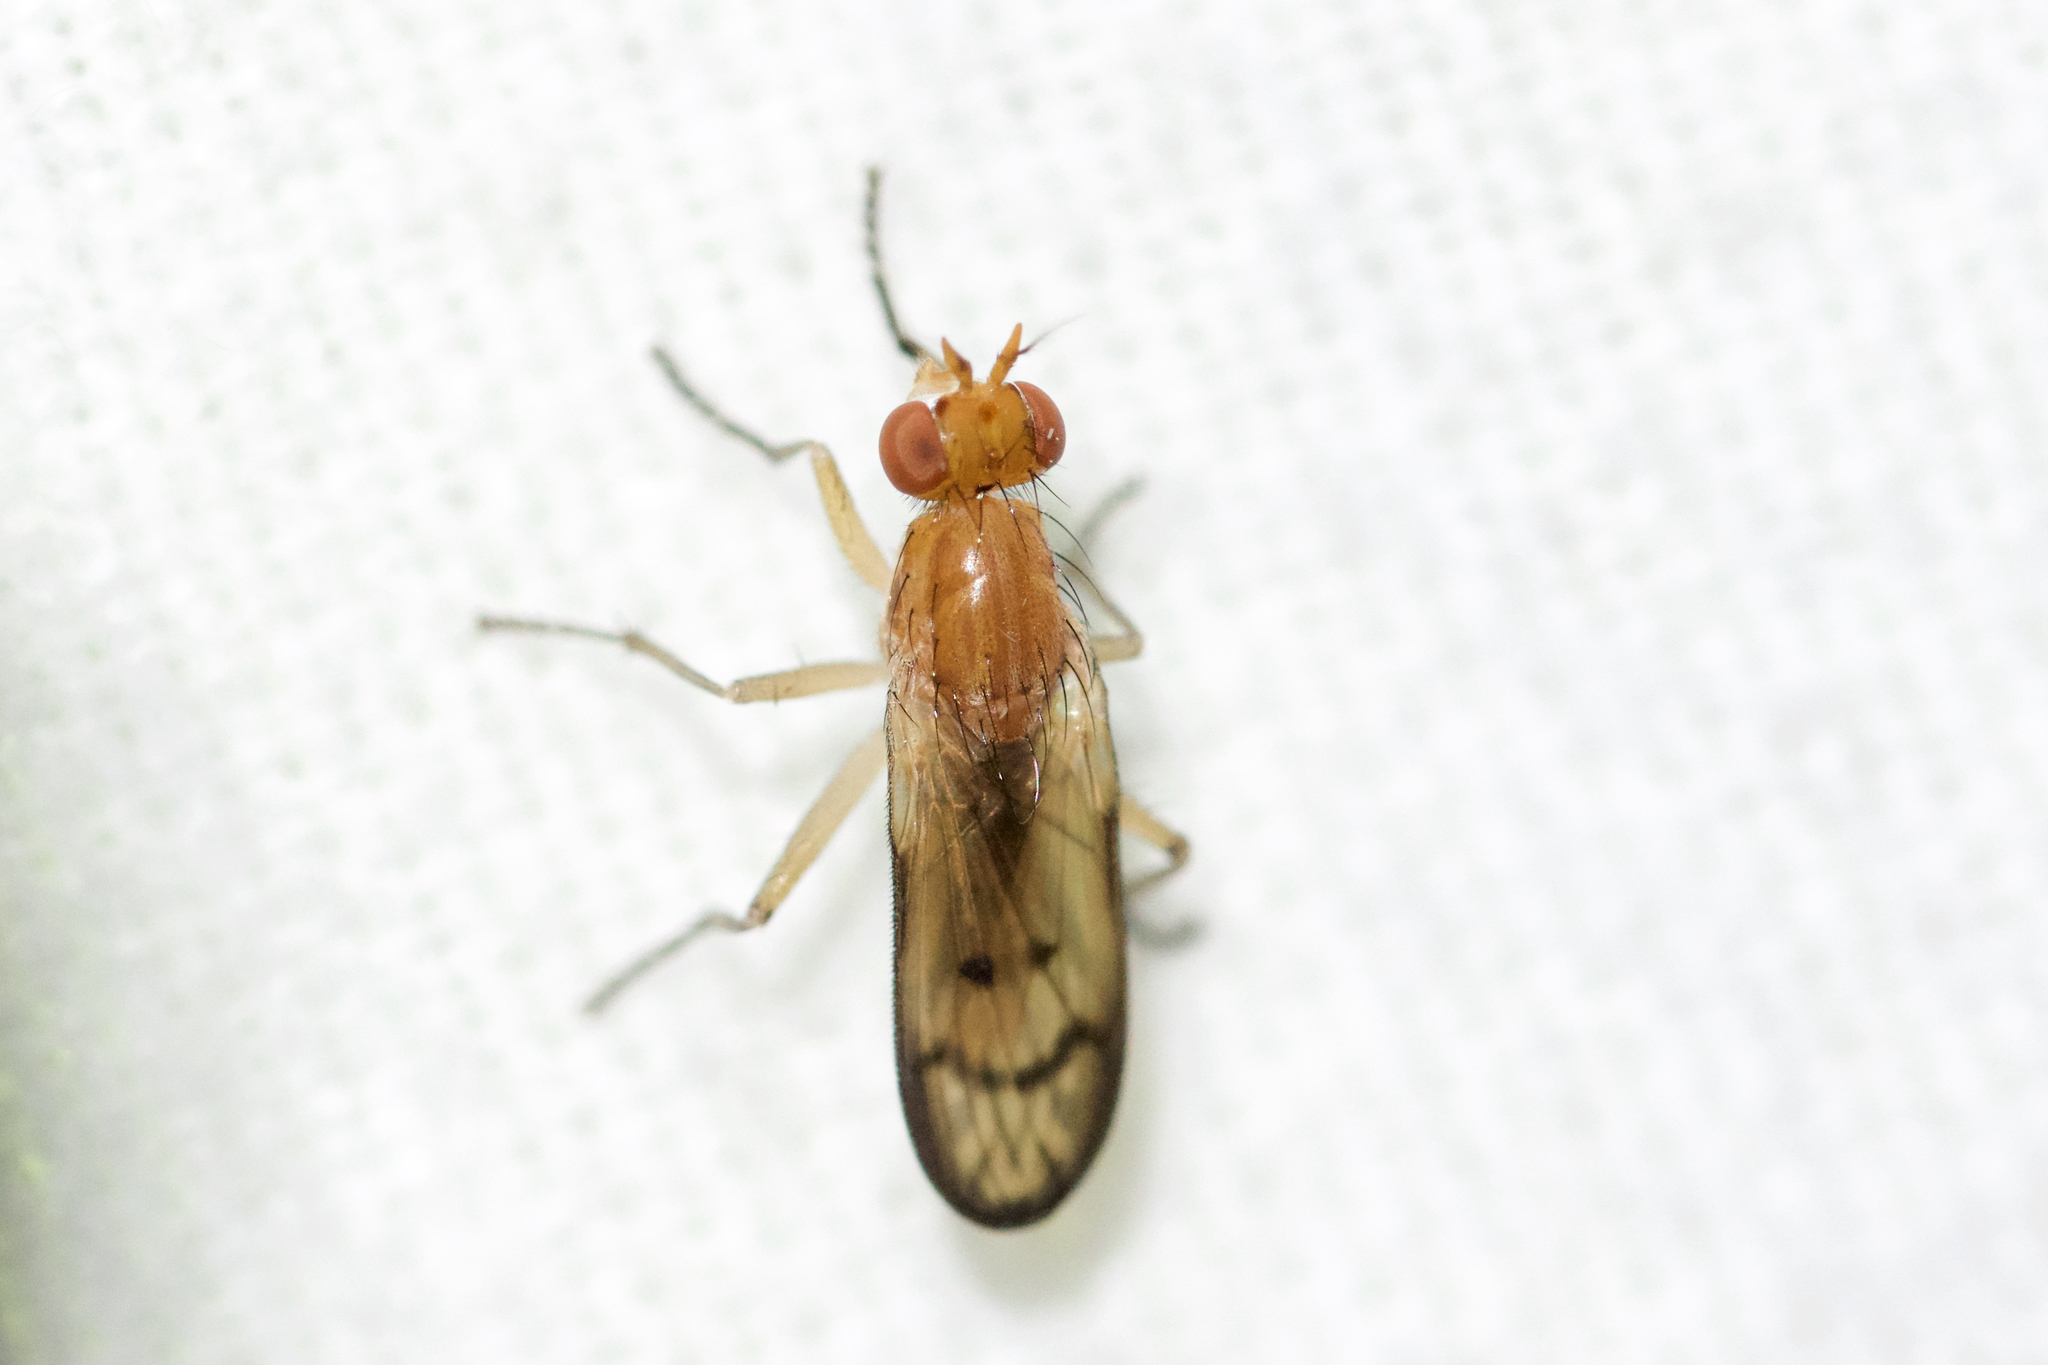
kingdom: Animalia
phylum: Arthropoda
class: Insecta
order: Diptera
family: Sciomyzidae
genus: Tetanocera
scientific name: Tetanocera plebeja
